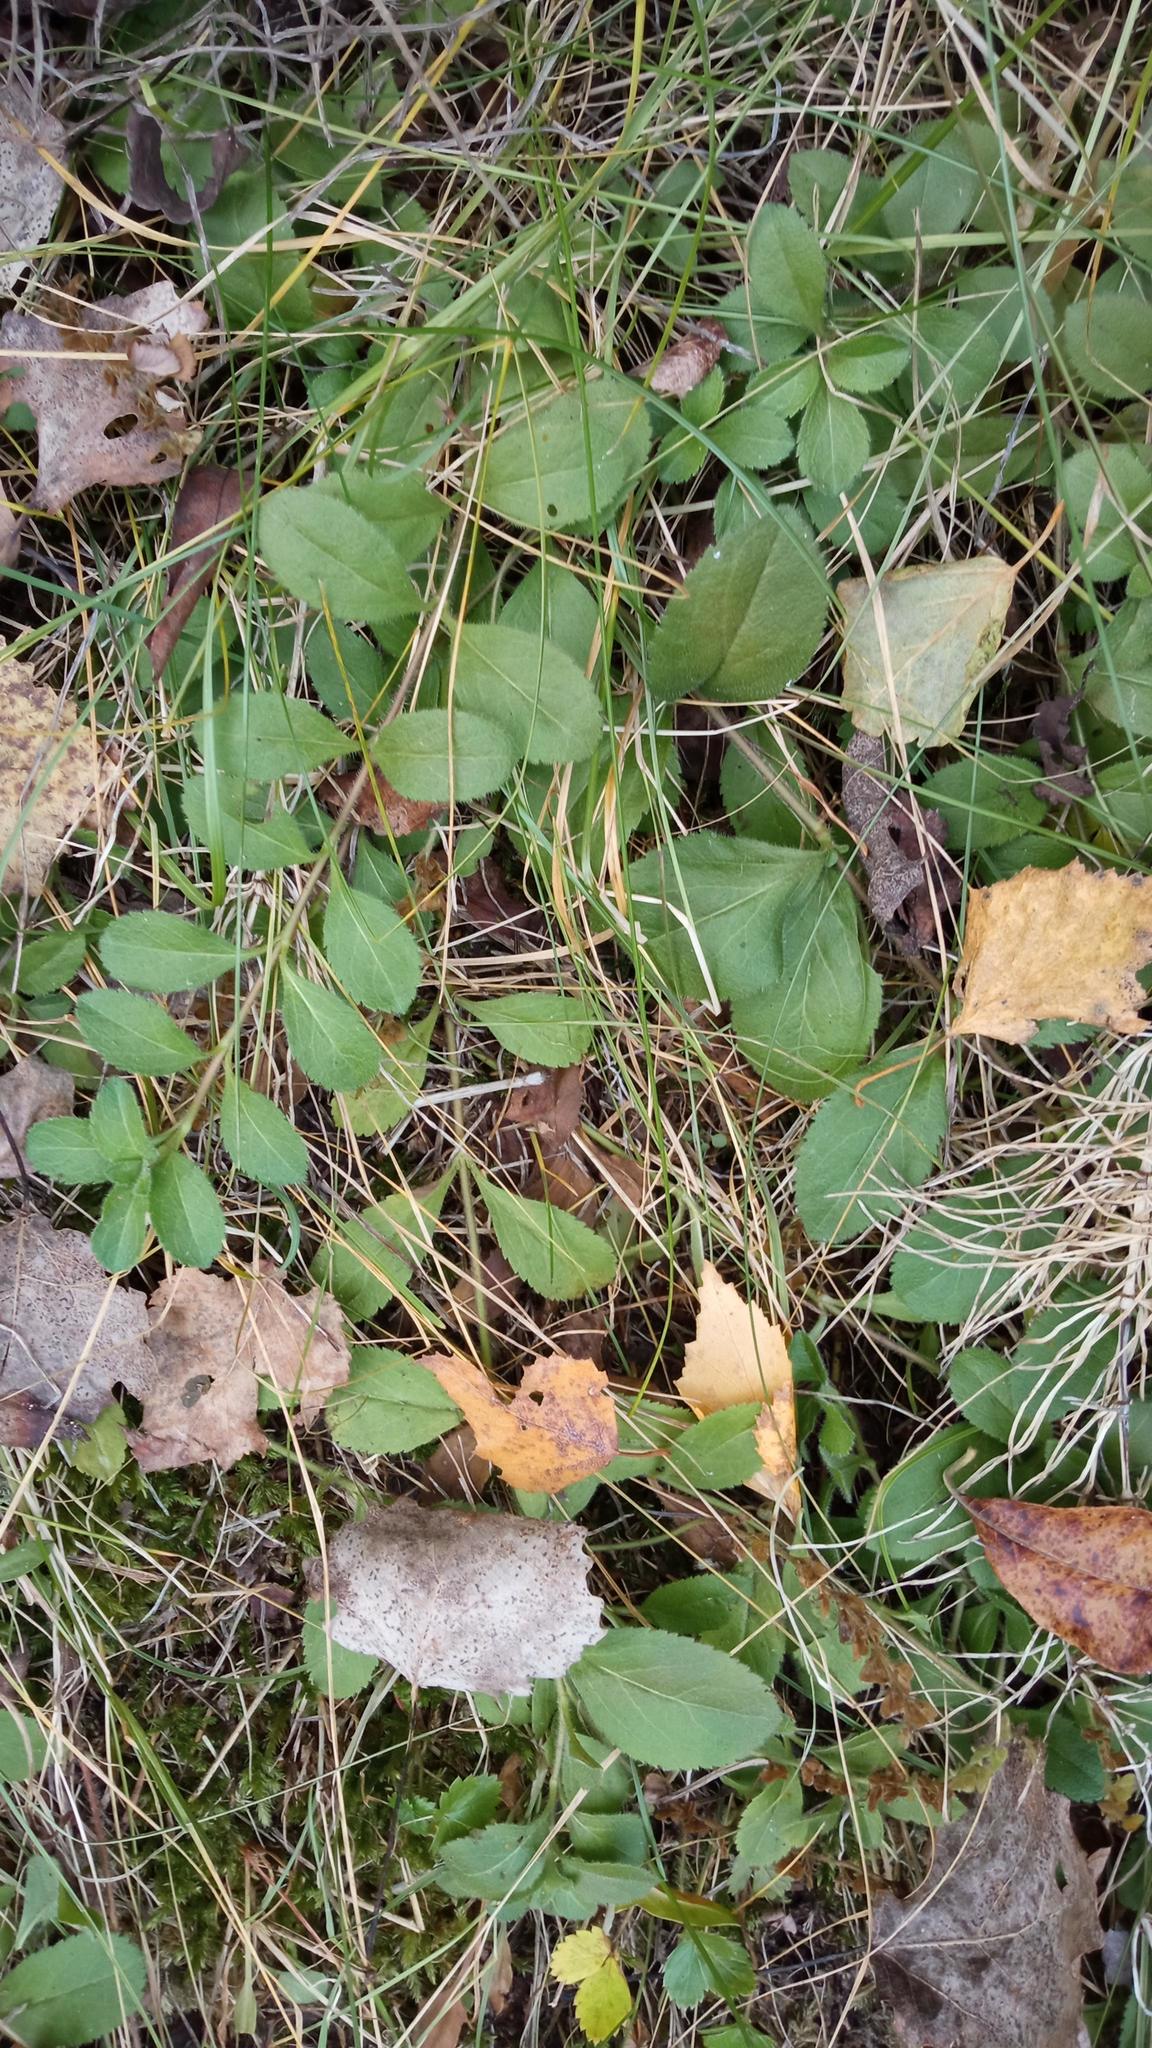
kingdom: Plantae
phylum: Tracheophyta
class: Magnoliopsida
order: Lamiales
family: Plantaginaceae
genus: Veronica
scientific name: Veronica officinalis
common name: Common speedwell
